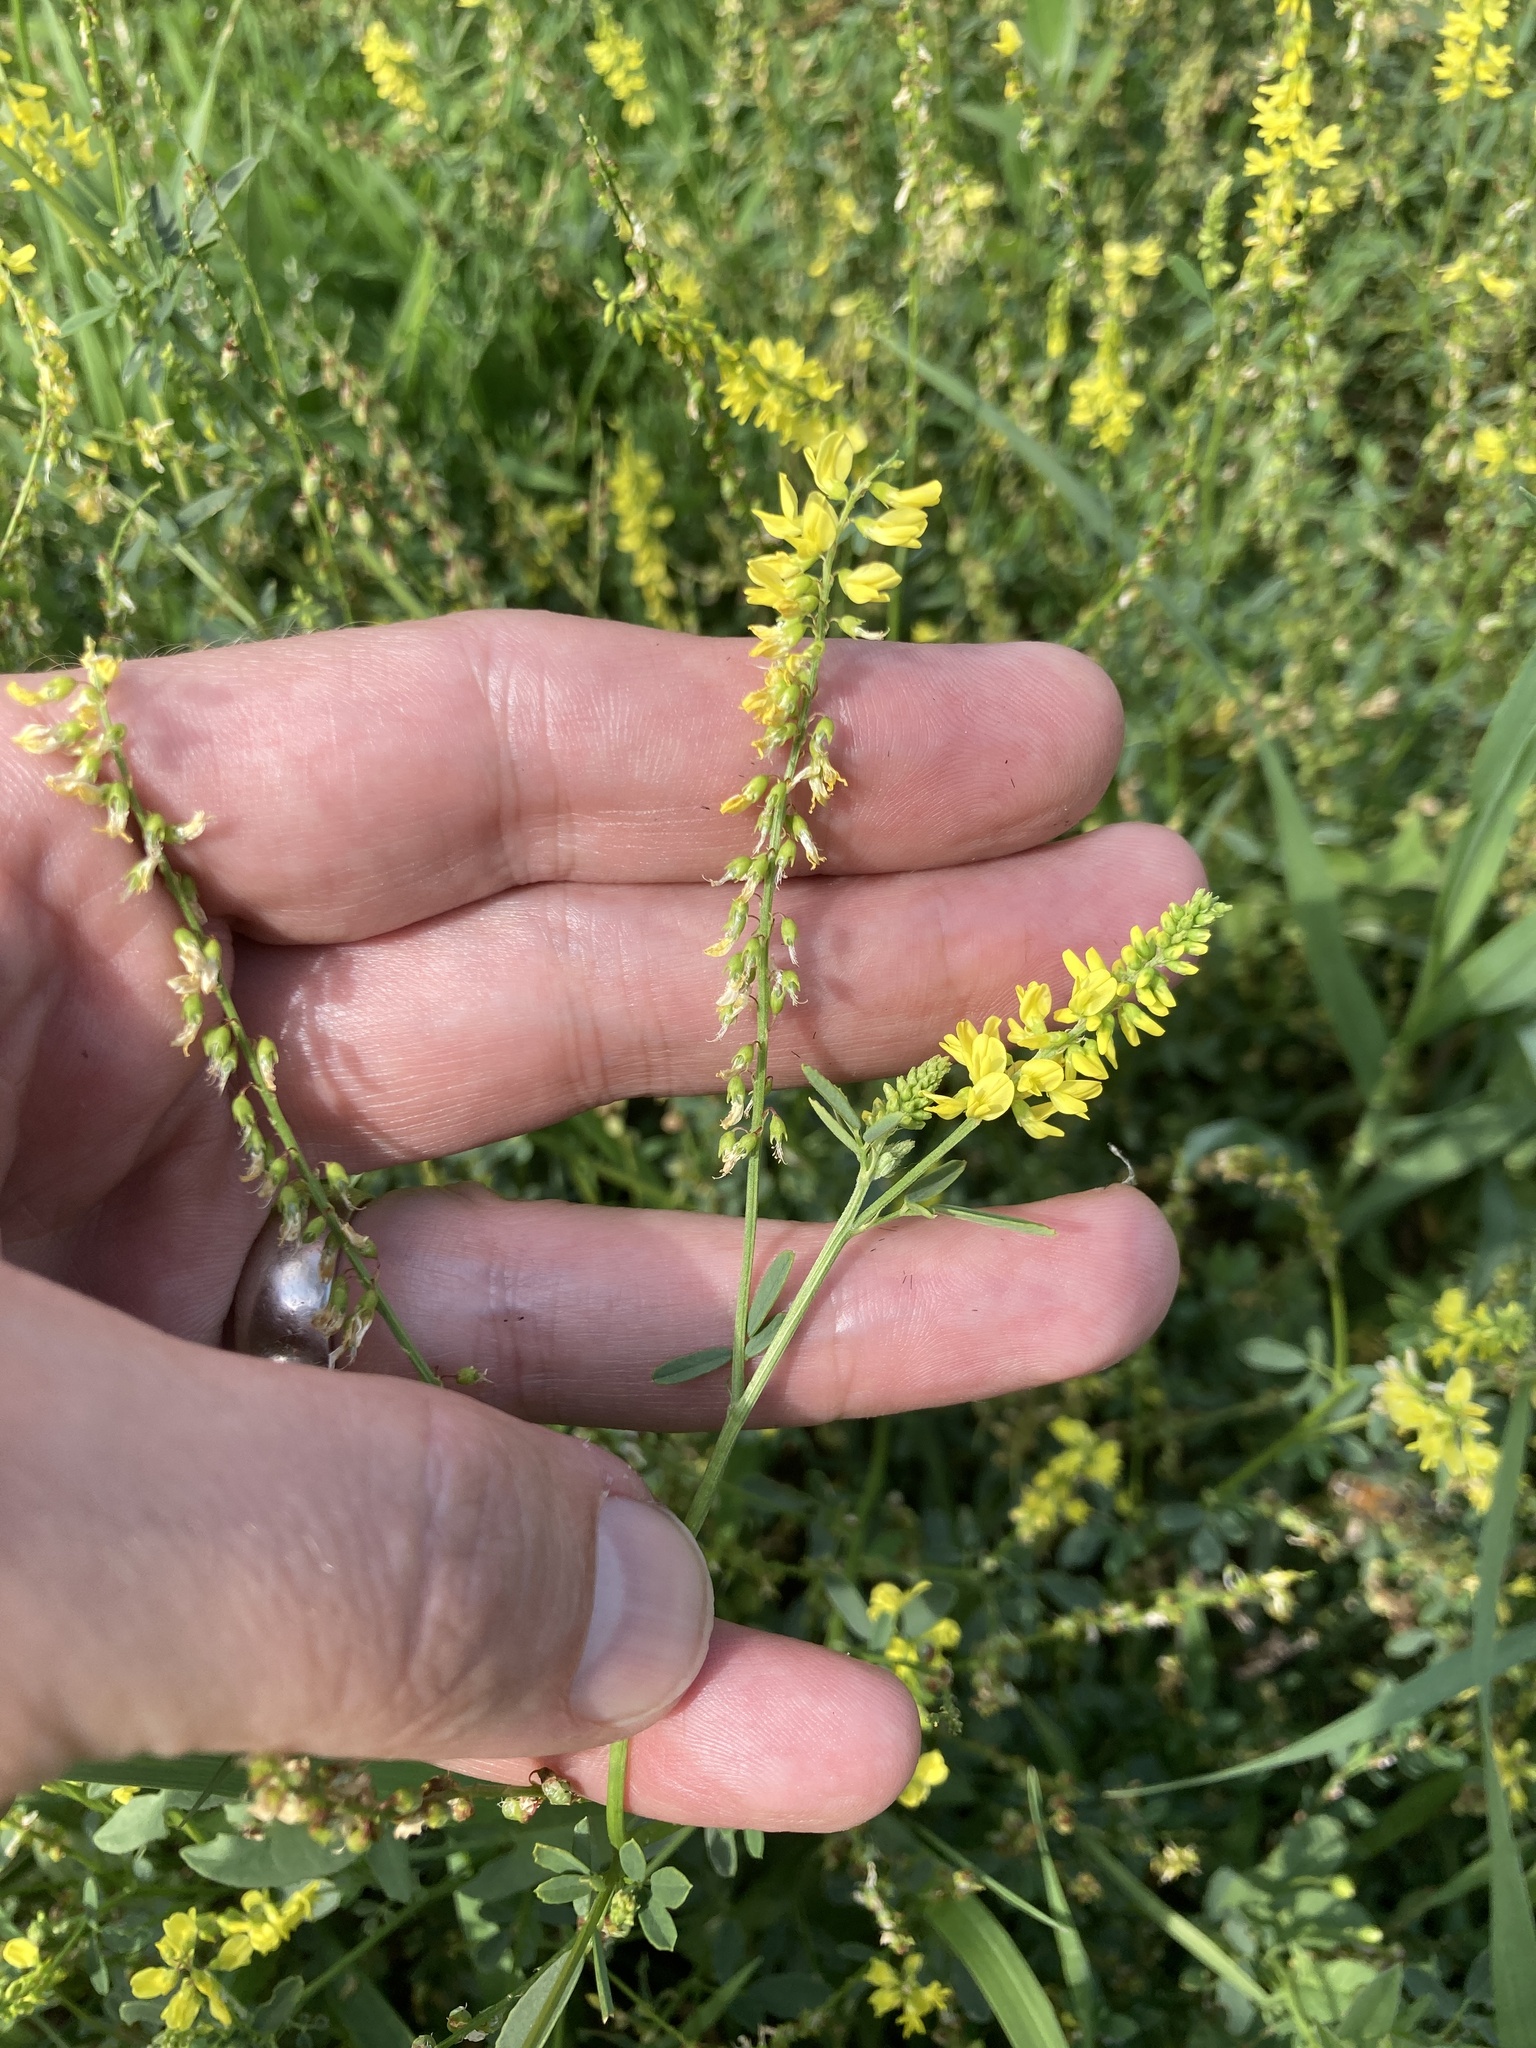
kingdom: Plantae
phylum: Tracheophyta
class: Magnoliopsida
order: Fabales
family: Fabaceae
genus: Melilotus
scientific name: Melilotus officinalis
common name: Sweetclover
